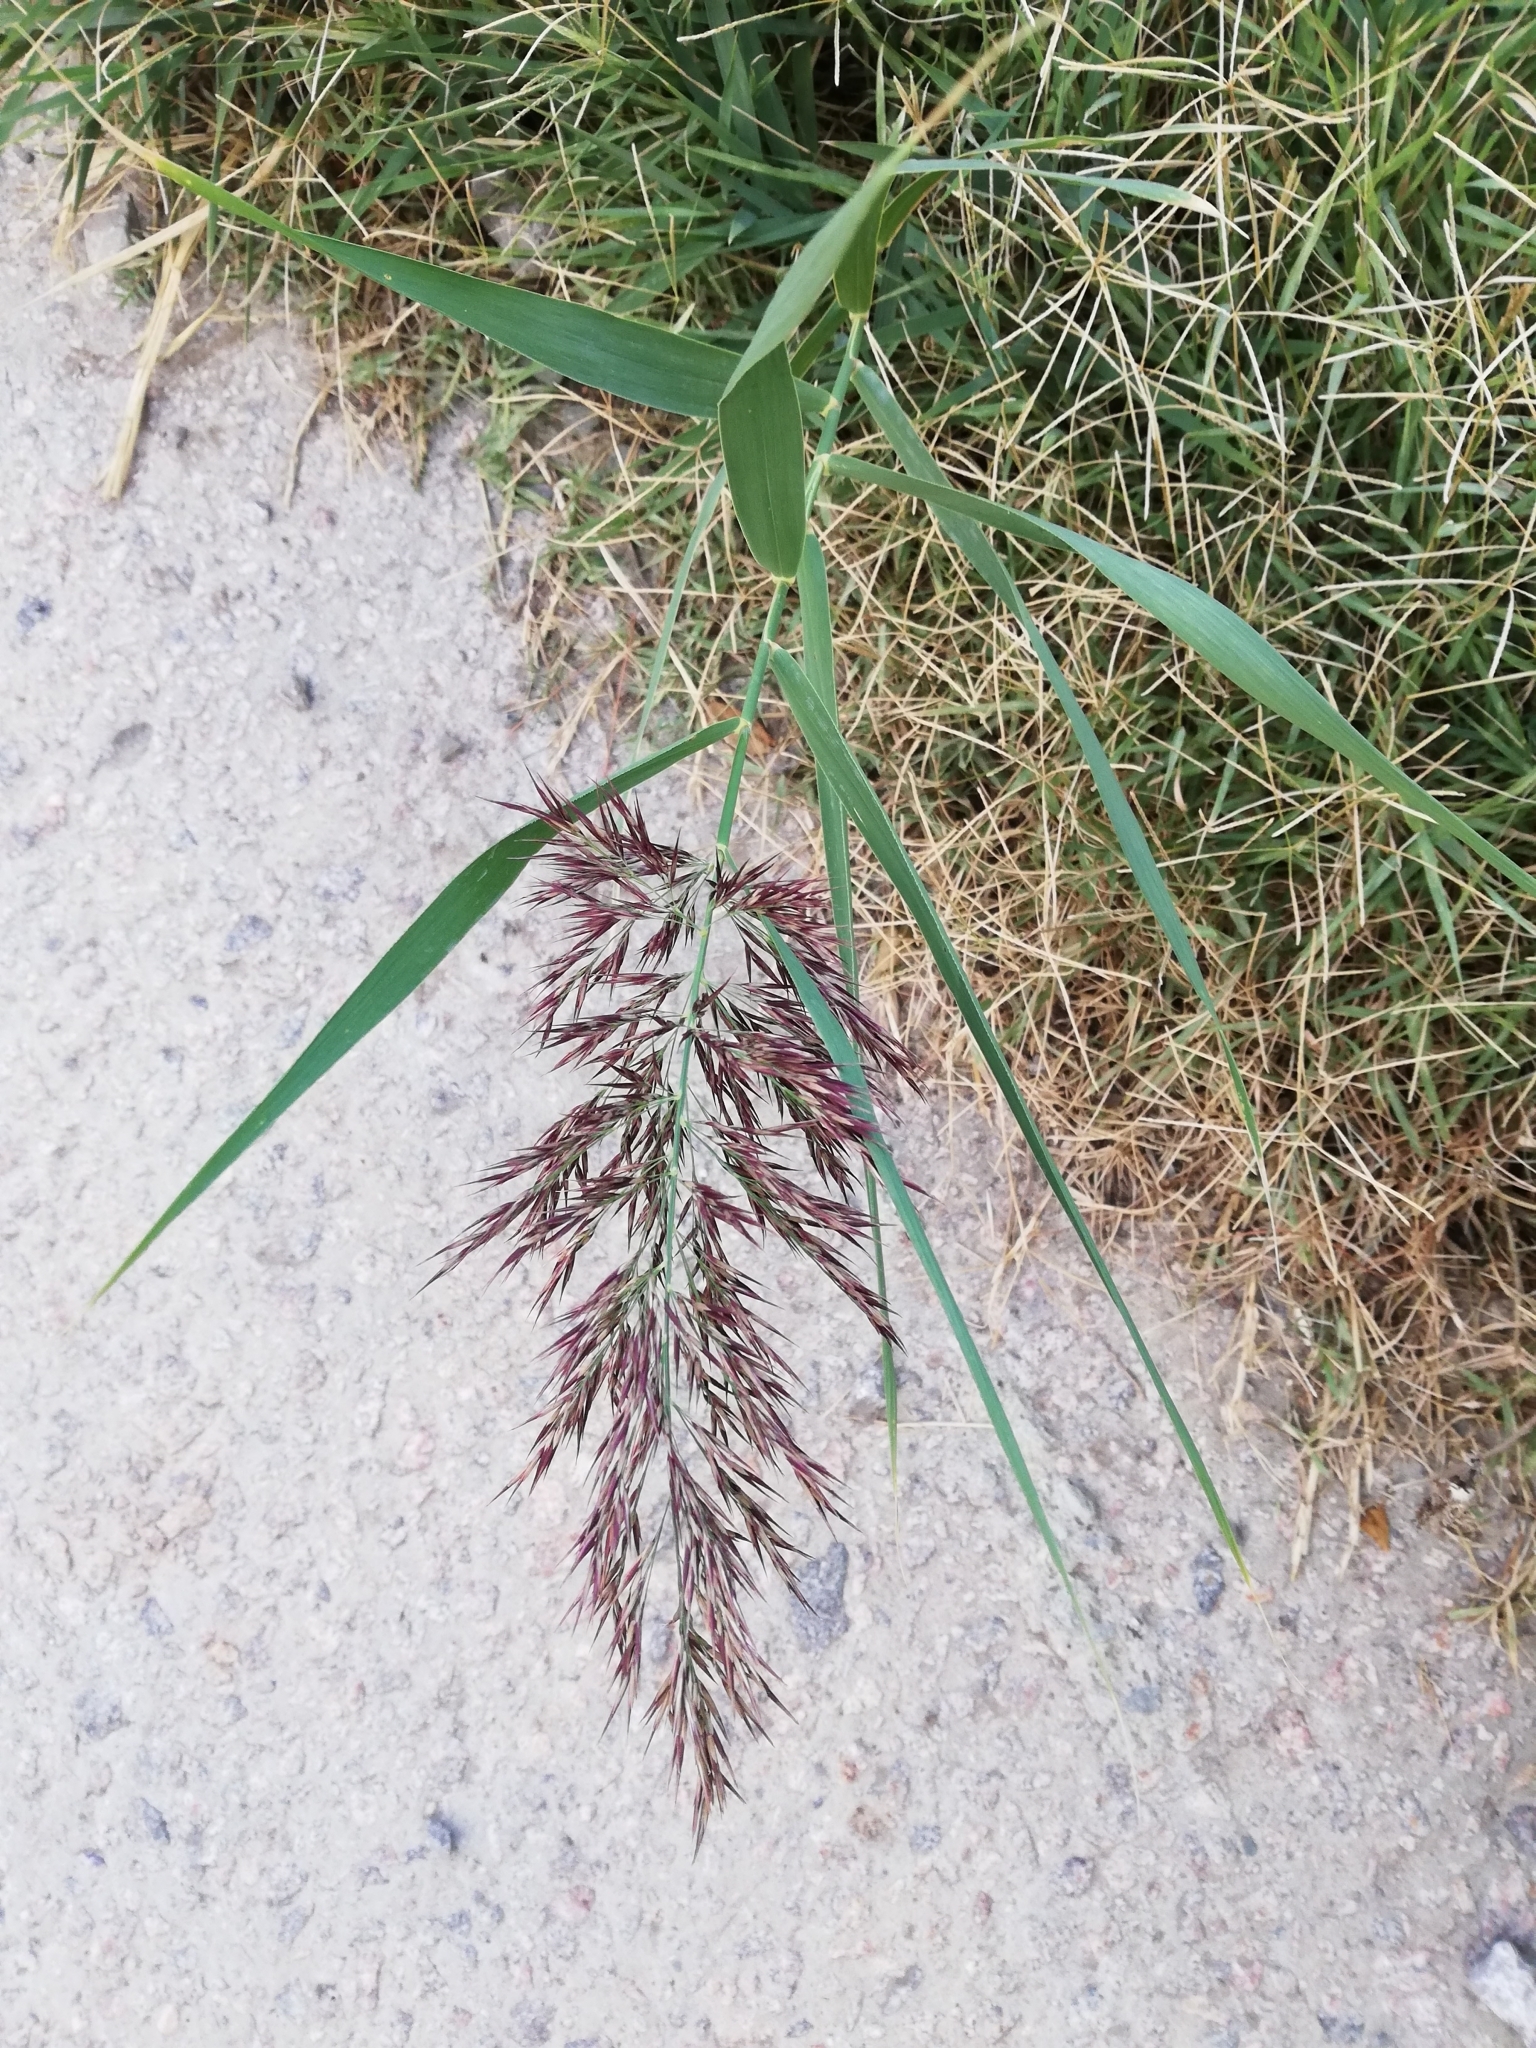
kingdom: Plantae
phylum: Tracheophyta
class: Liliopsida
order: Poales
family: Poaceae
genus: Phragmites
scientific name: Phragmites australis
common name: Common reed
